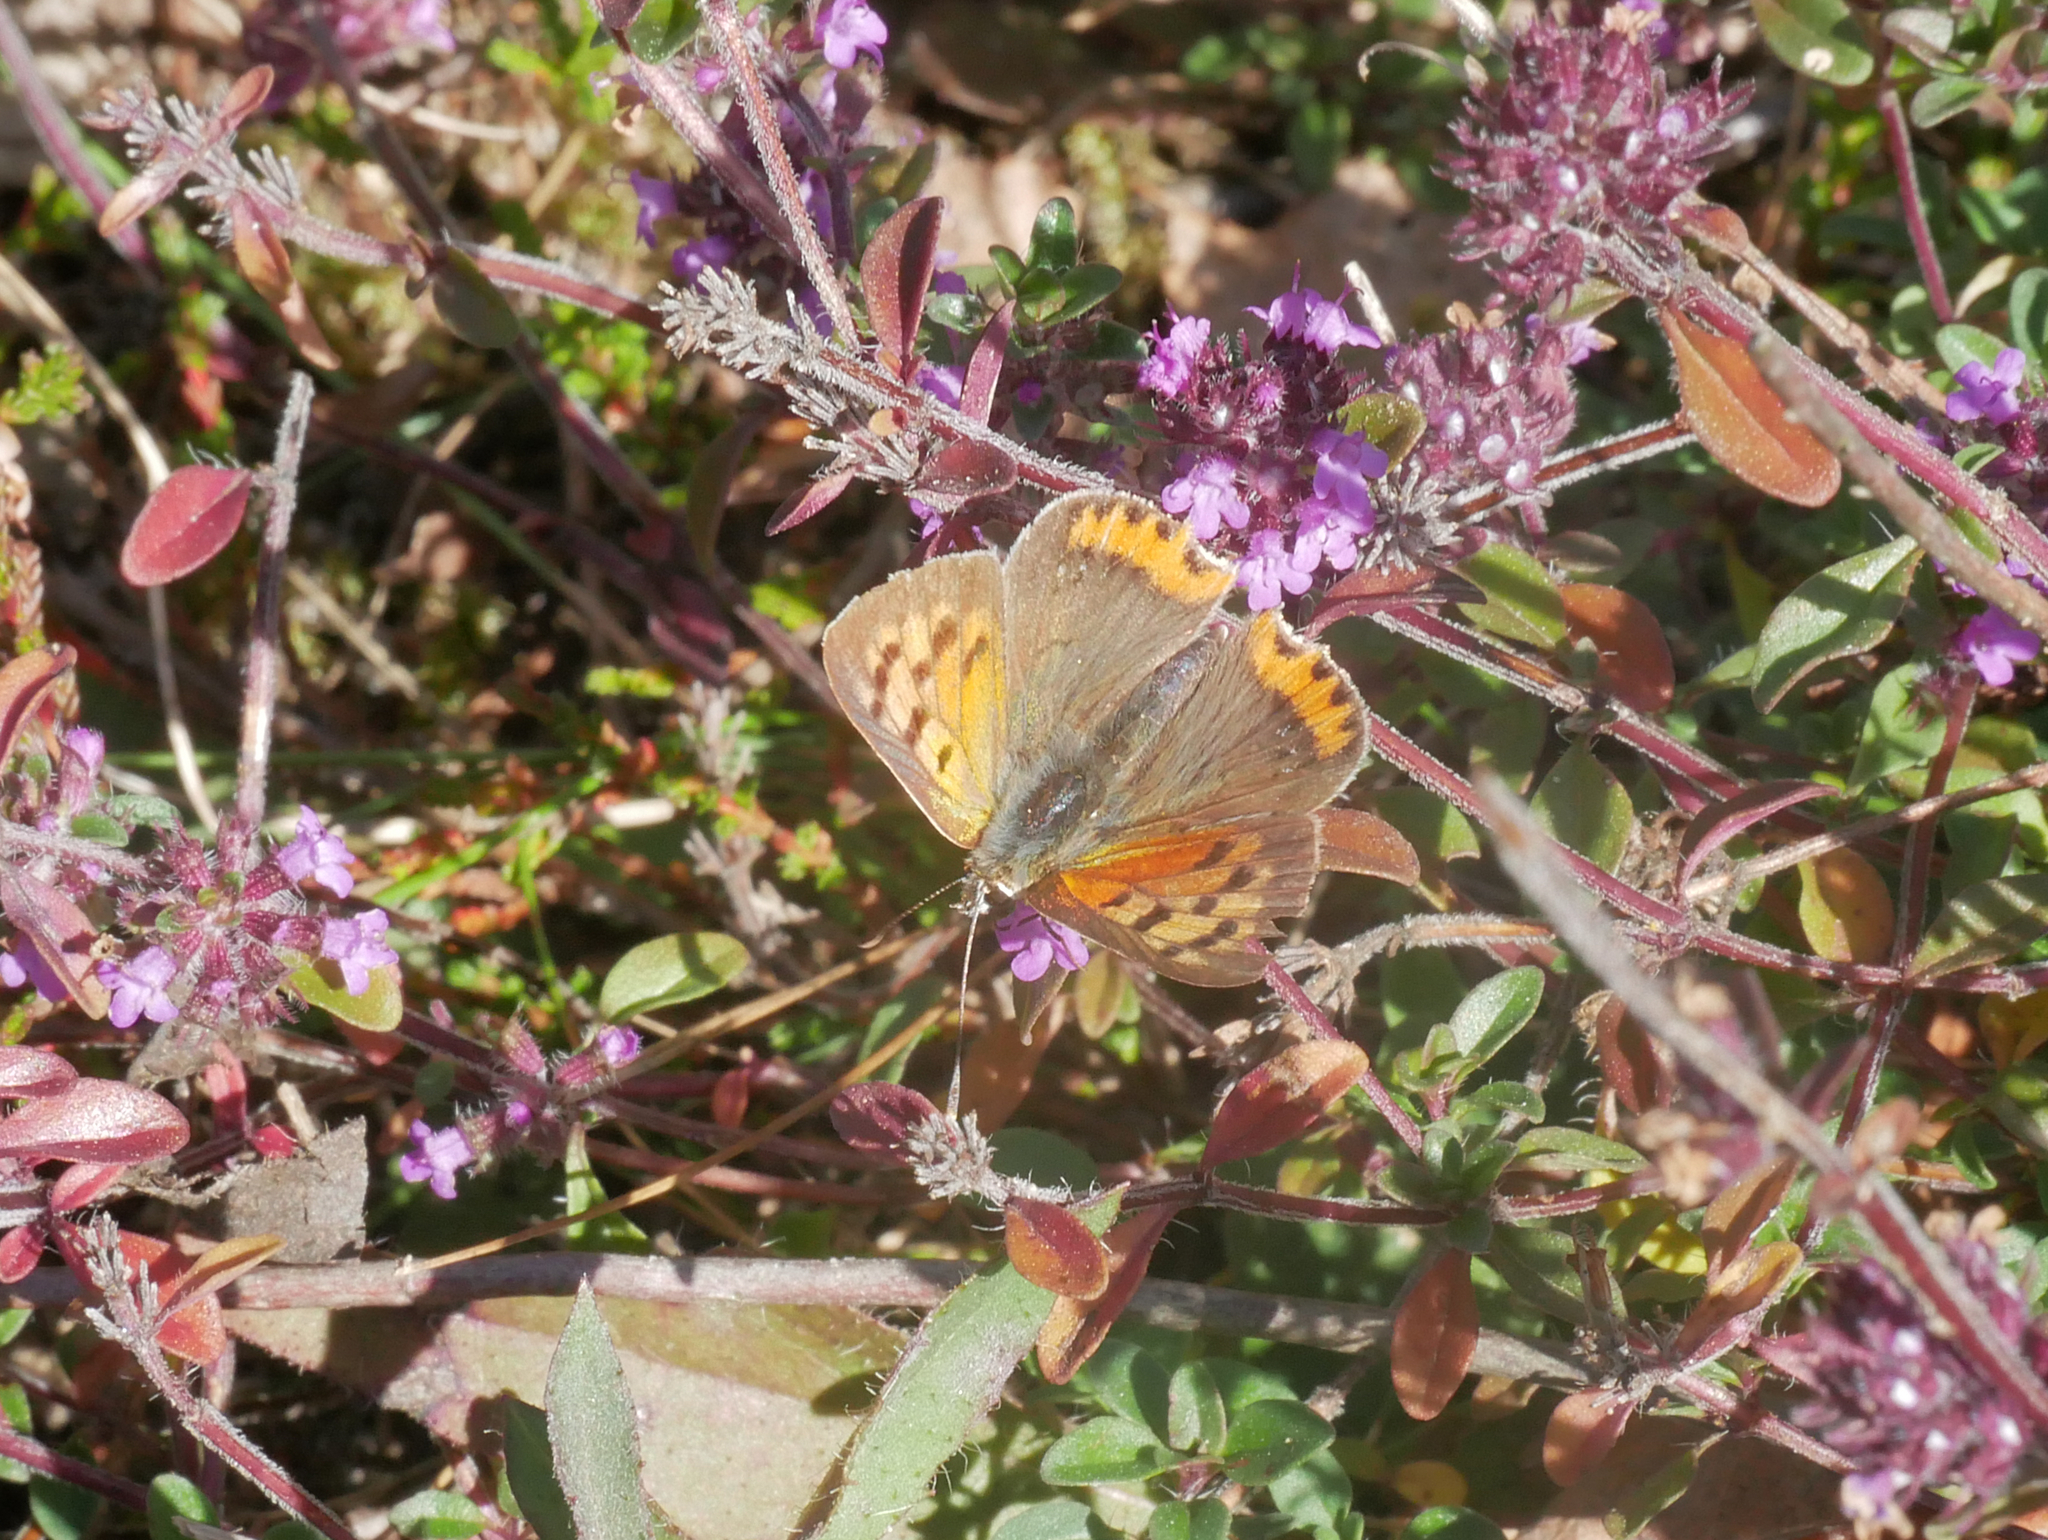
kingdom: Animalia
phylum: Arthropoda
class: Insecta
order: Lepidoptera
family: Lycaenidae
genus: Lycaena
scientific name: Lycaena phlaeas
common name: Small copper
